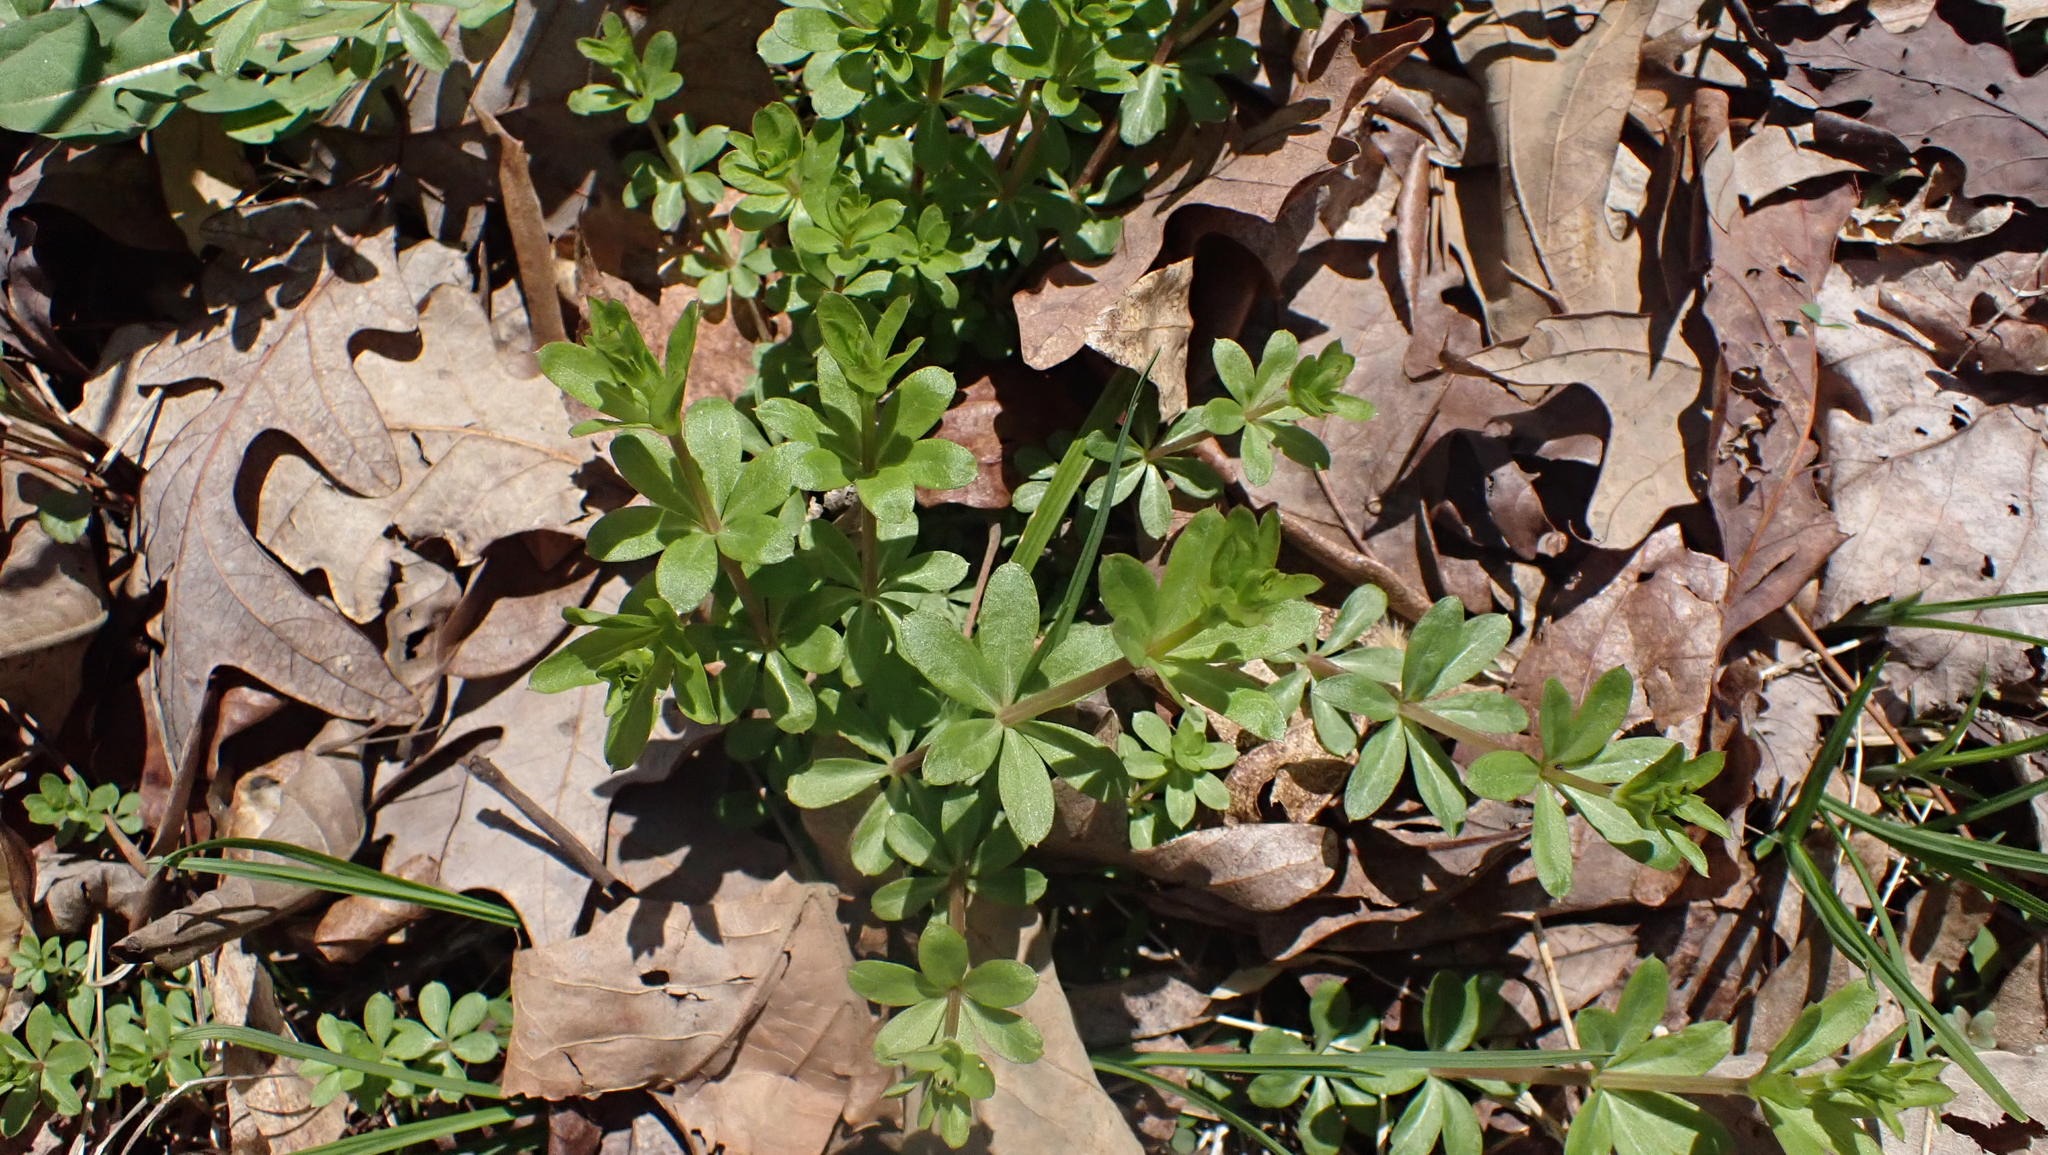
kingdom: Plantae
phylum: Tracheophyta
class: Magnoliopsida
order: Gentianales
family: Rubiaceae
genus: Galium
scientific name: Galium triflorum
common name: Fragrant bedstraw
